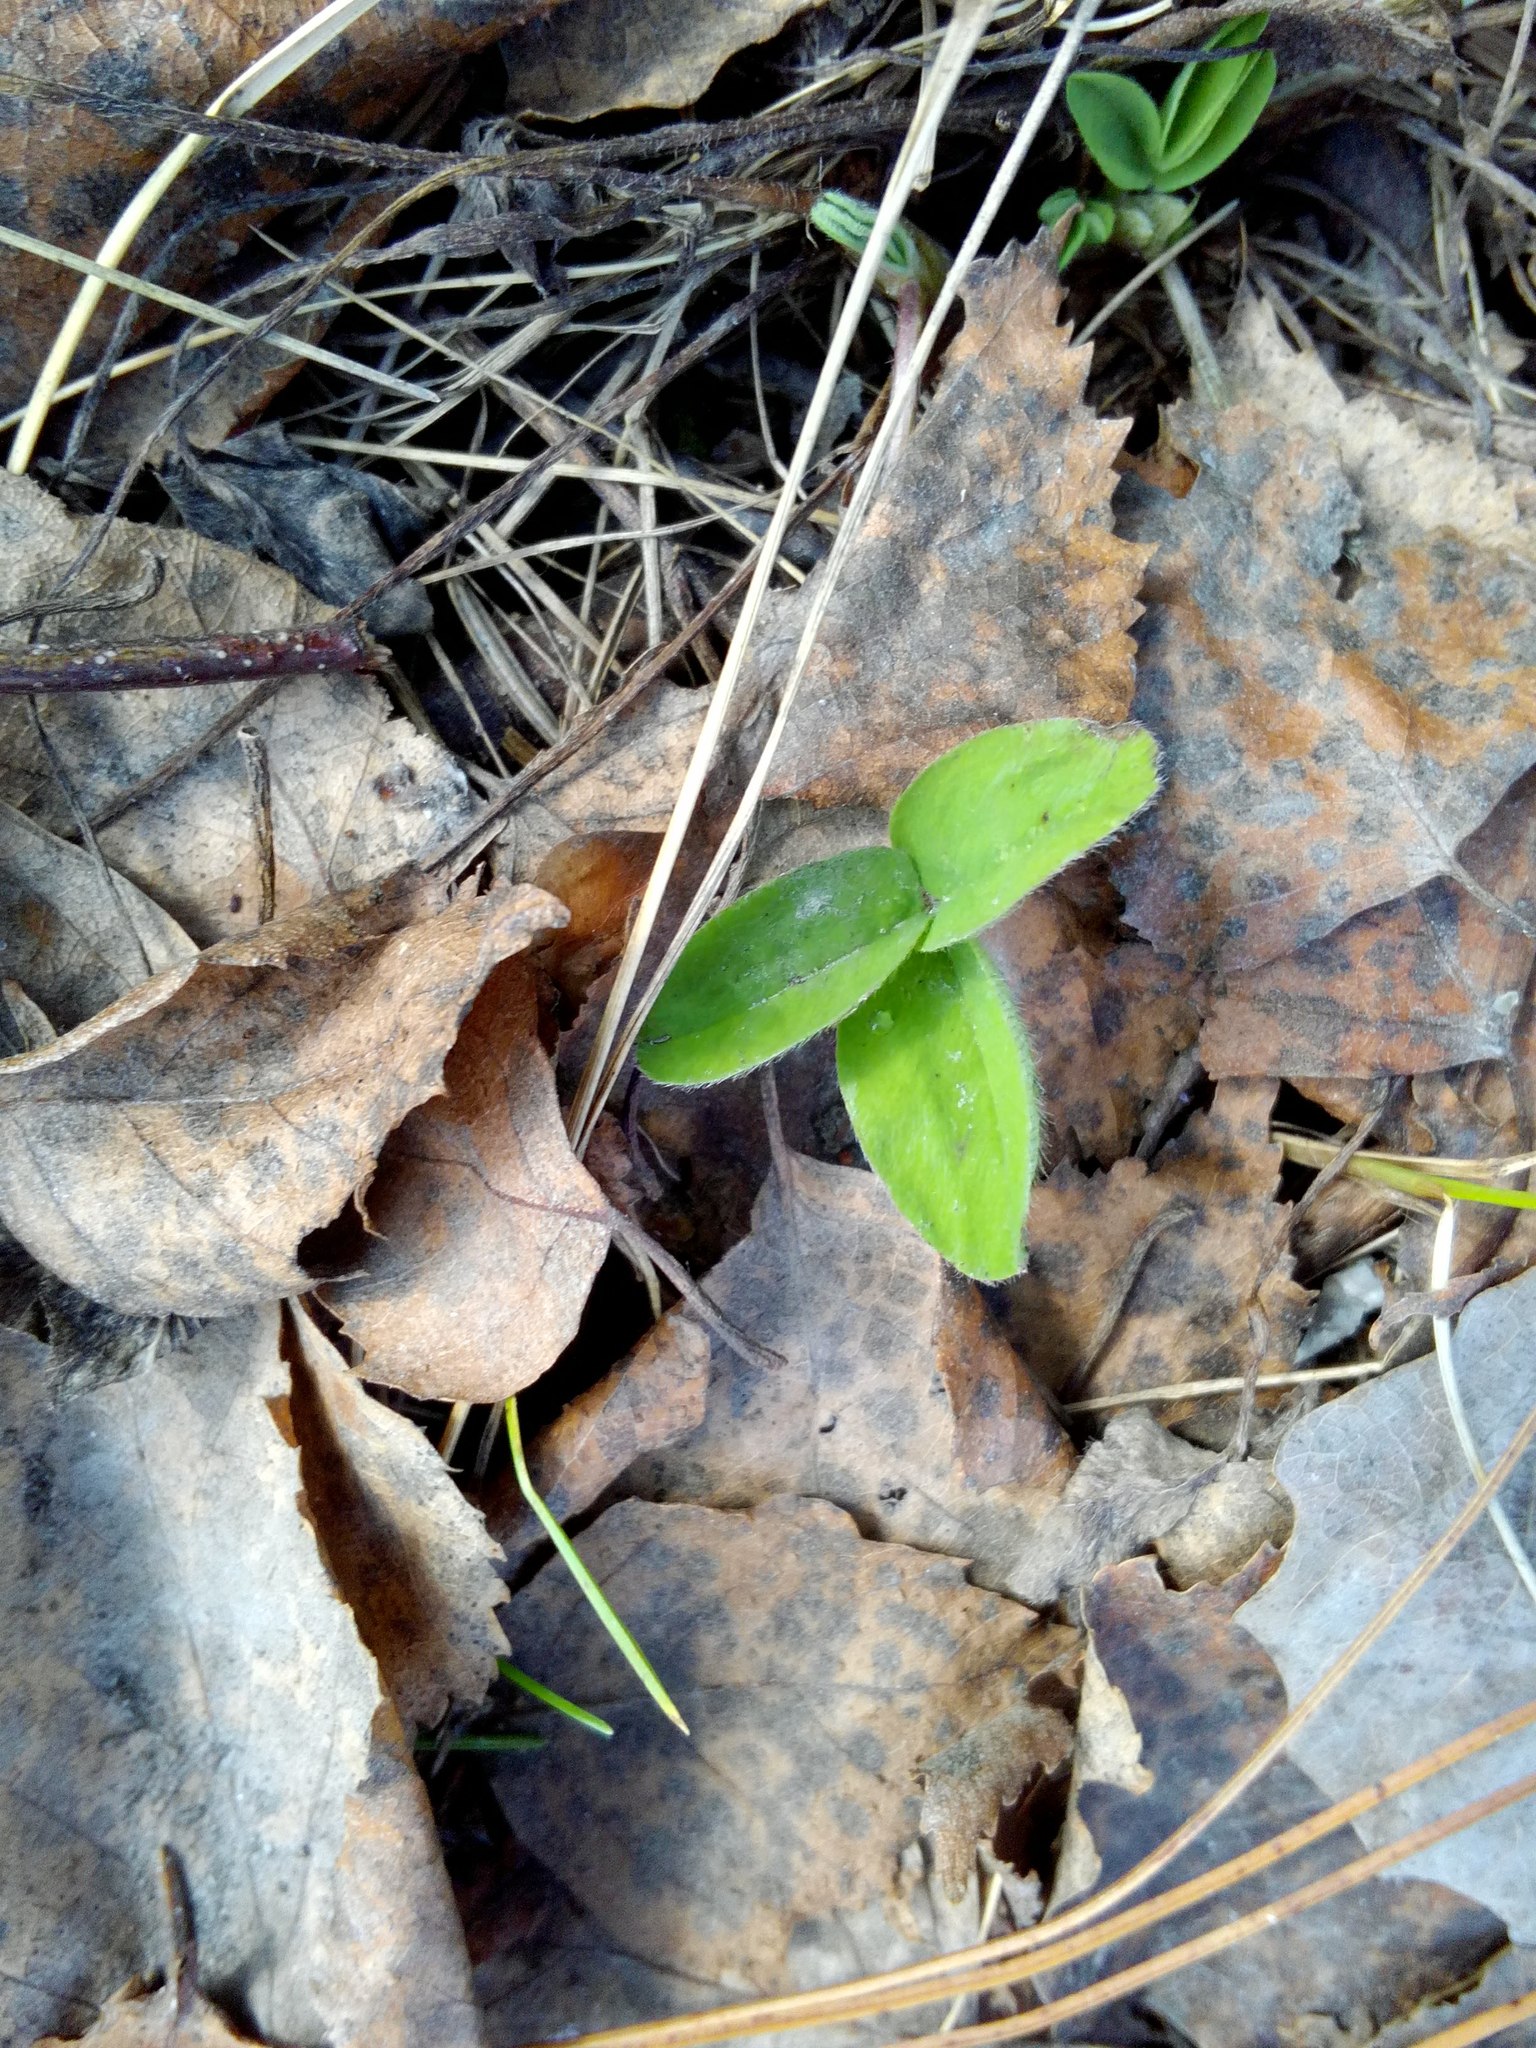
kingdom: Plantae
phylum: Tracheophyta
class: Magnoliopsida
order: Fabales
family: Fabaceae
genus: Trifolium
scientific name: Trifolium pratense
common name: Red clover
